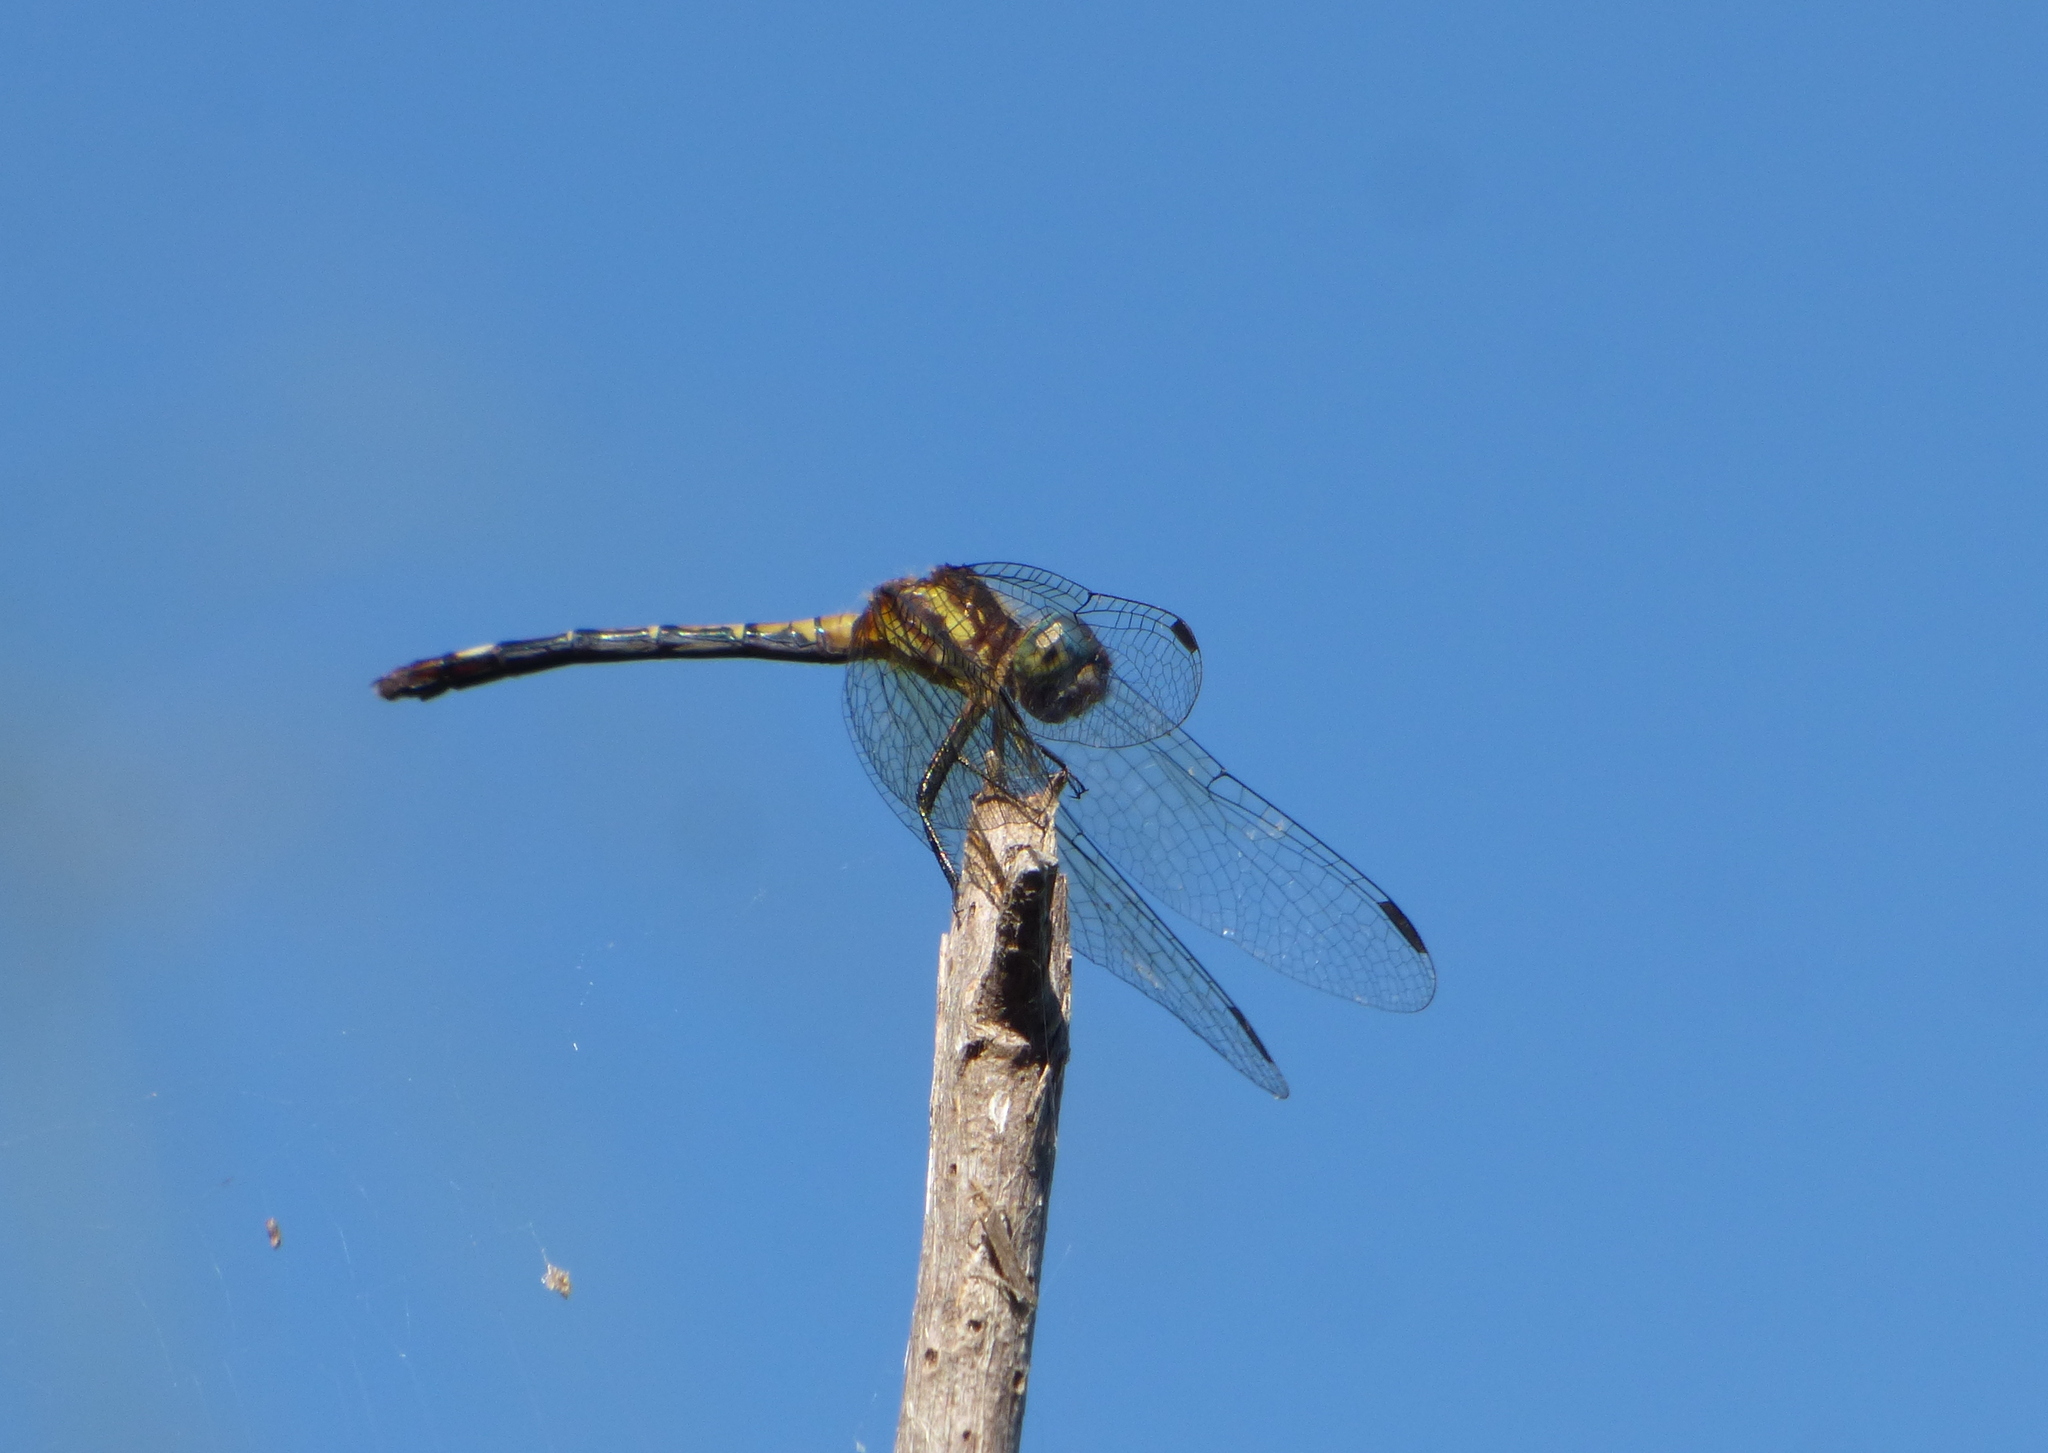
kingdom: Animalia
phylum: Arthropoda
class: Insecta
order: Odonata
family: Libellulidae
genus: Micrathyria
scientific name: Micrathyria hypodidyma
